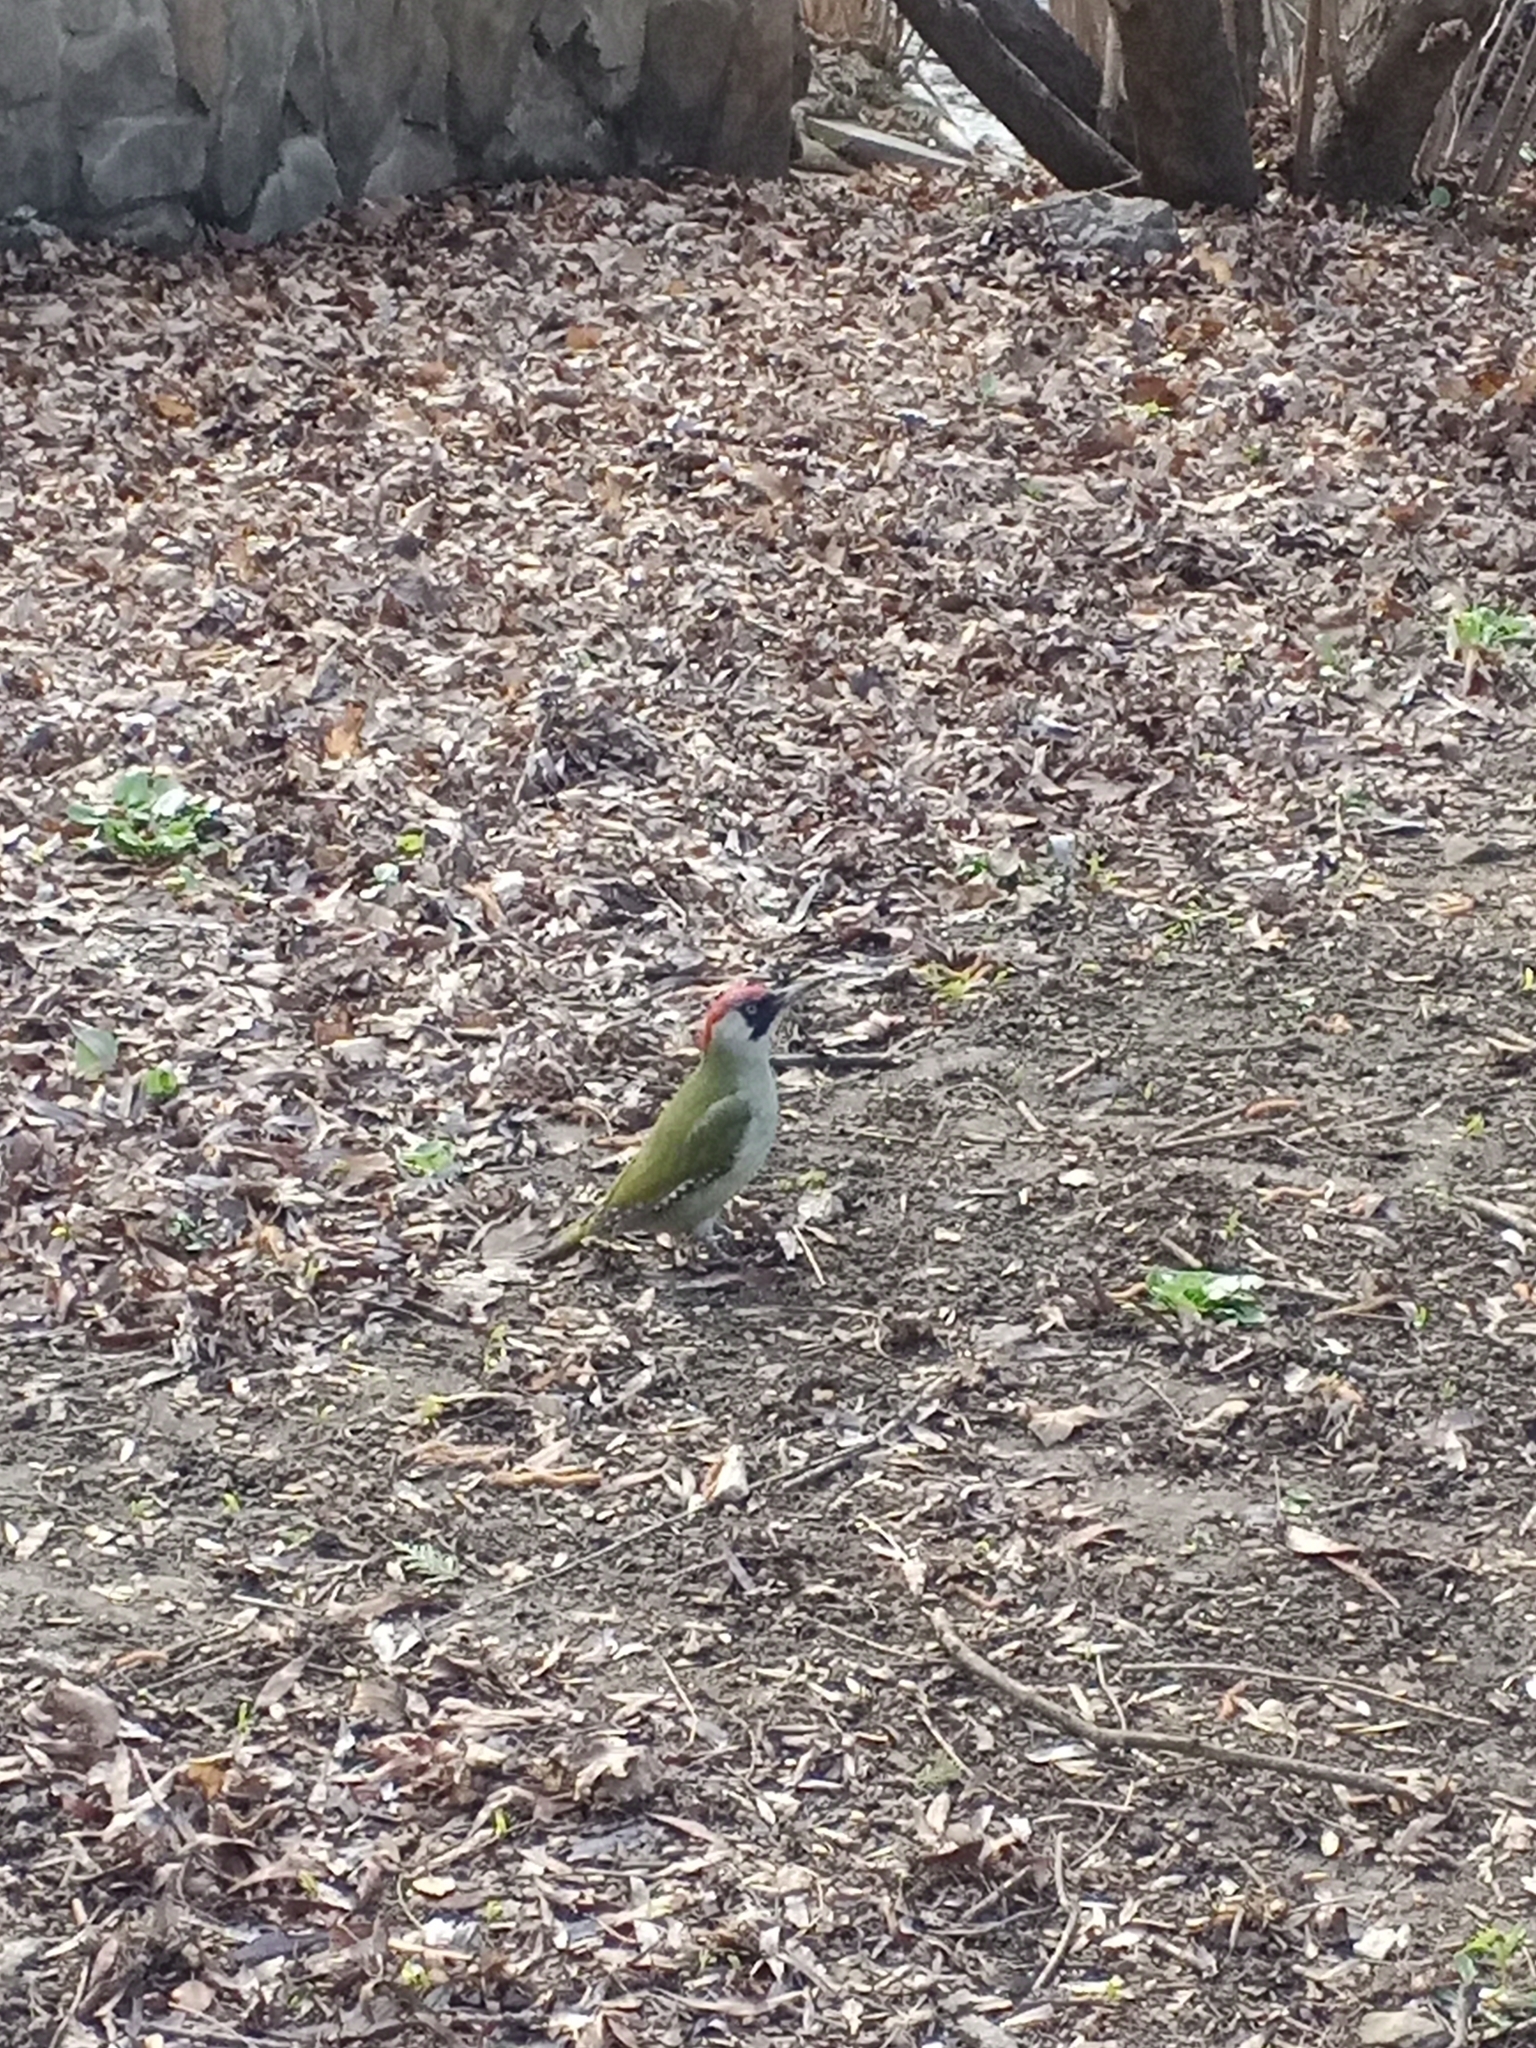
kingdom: Animalia
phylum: Chordata
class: Aves
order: Piciformes
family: Picidae
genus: Picus
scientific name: Picus viridis
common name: European green woodpecker
